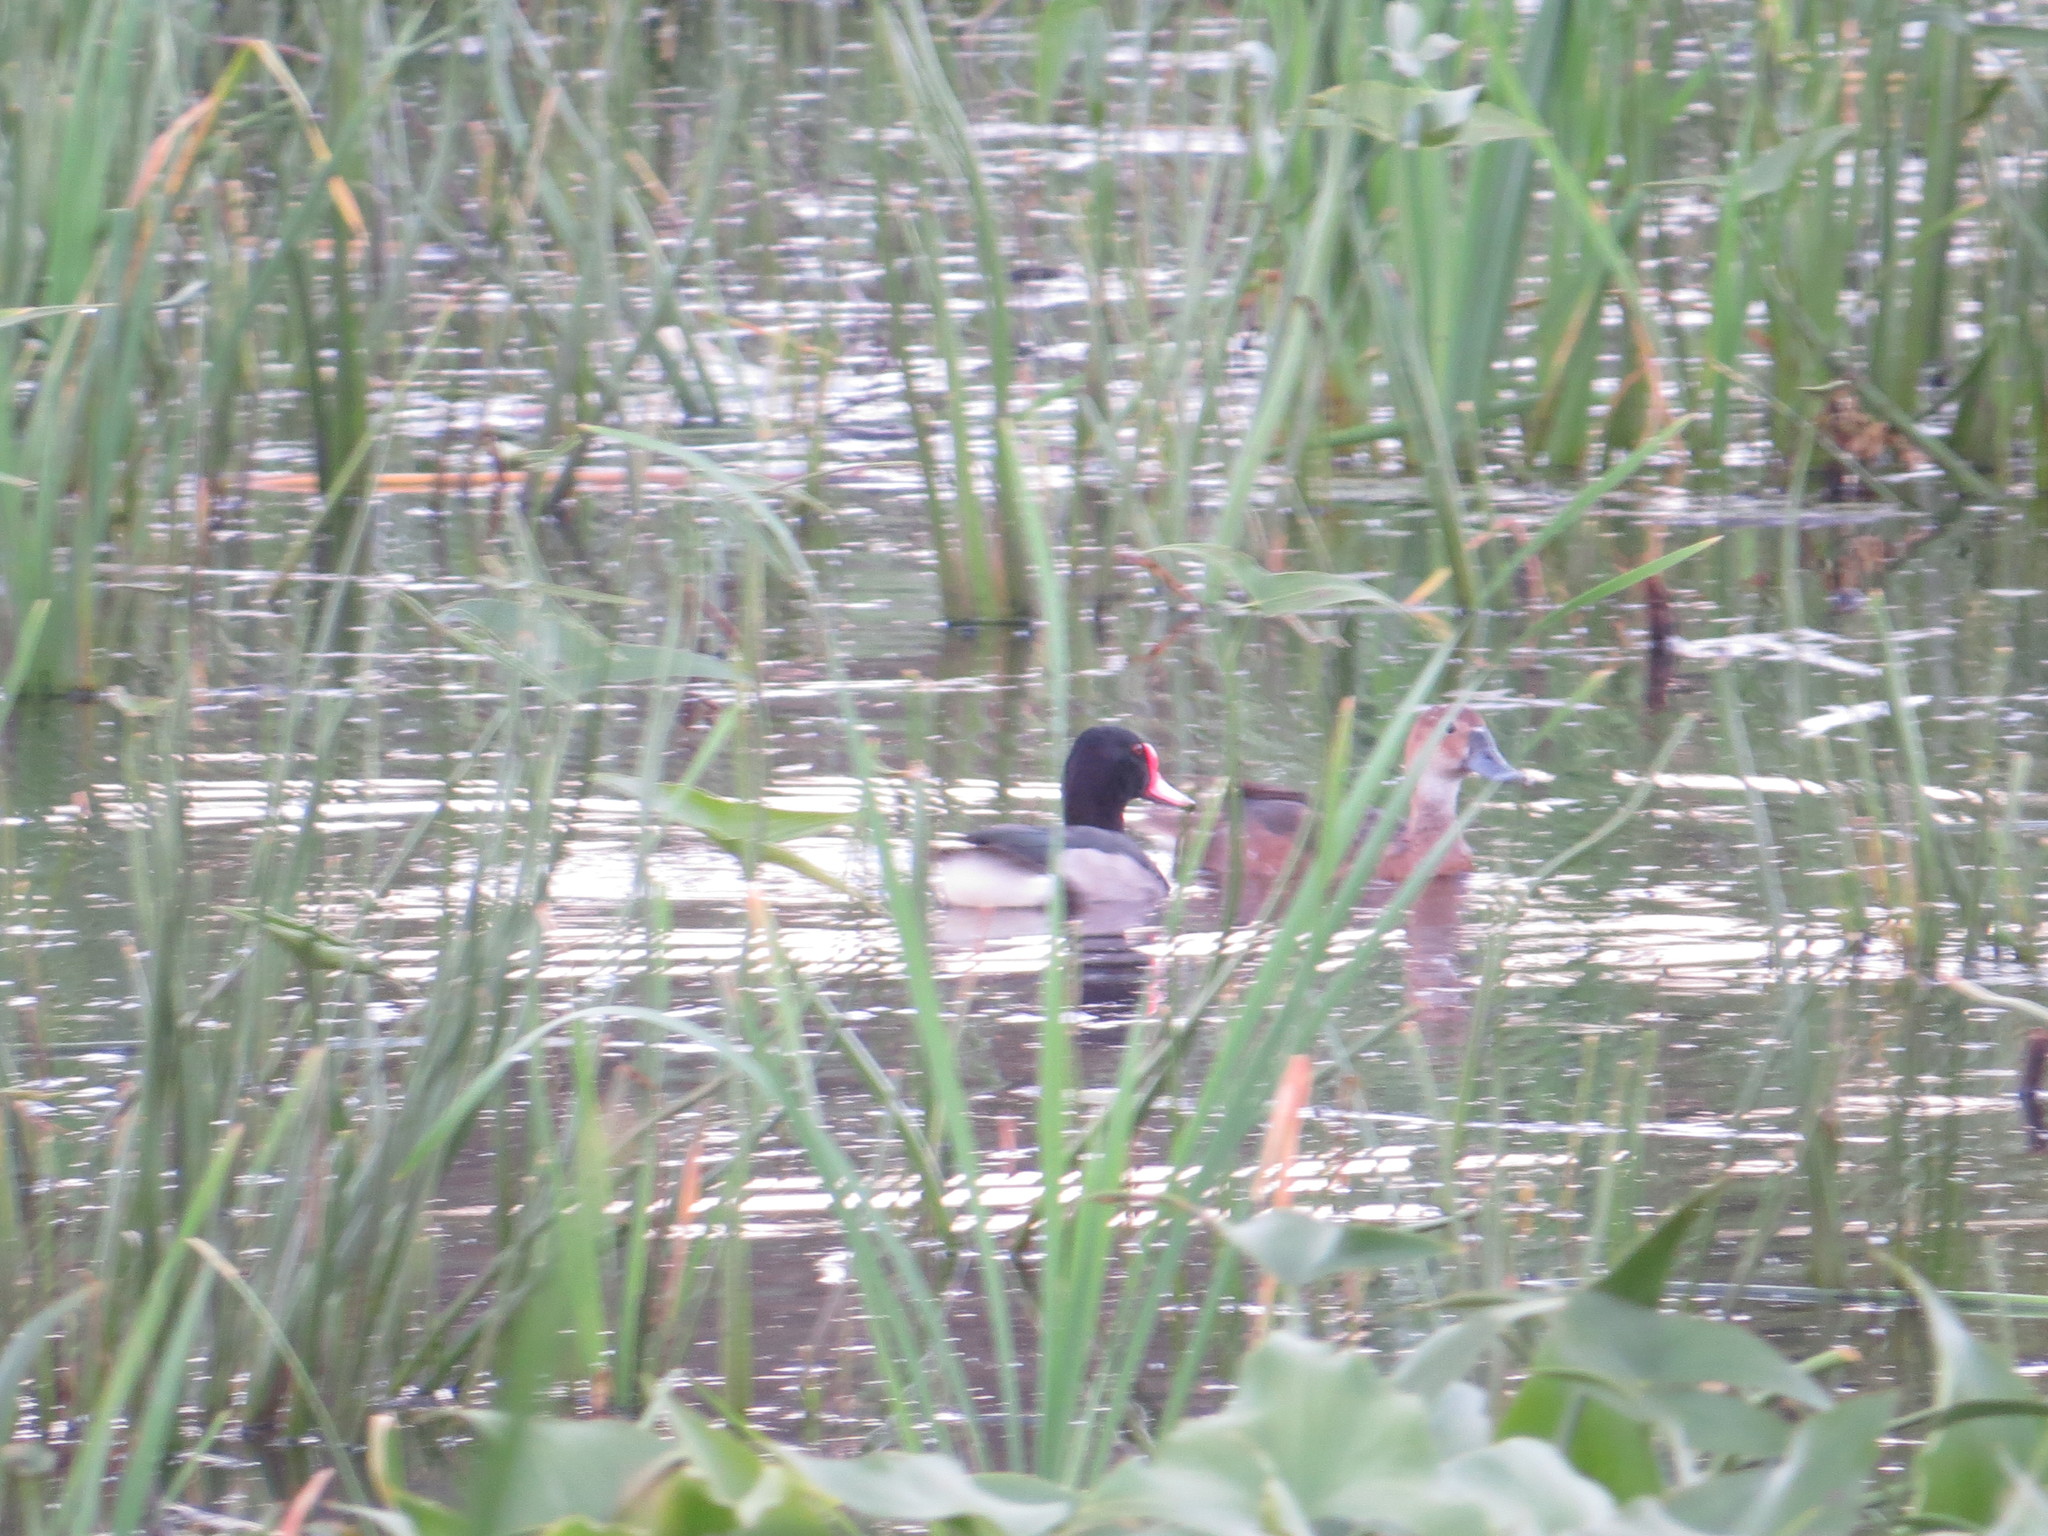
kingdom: Animalia
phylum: Chordata
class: Aves
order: Anseriformes
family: Anatidae
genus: Netta
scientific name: Netta peposaca
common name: Rosy-billed pochard
